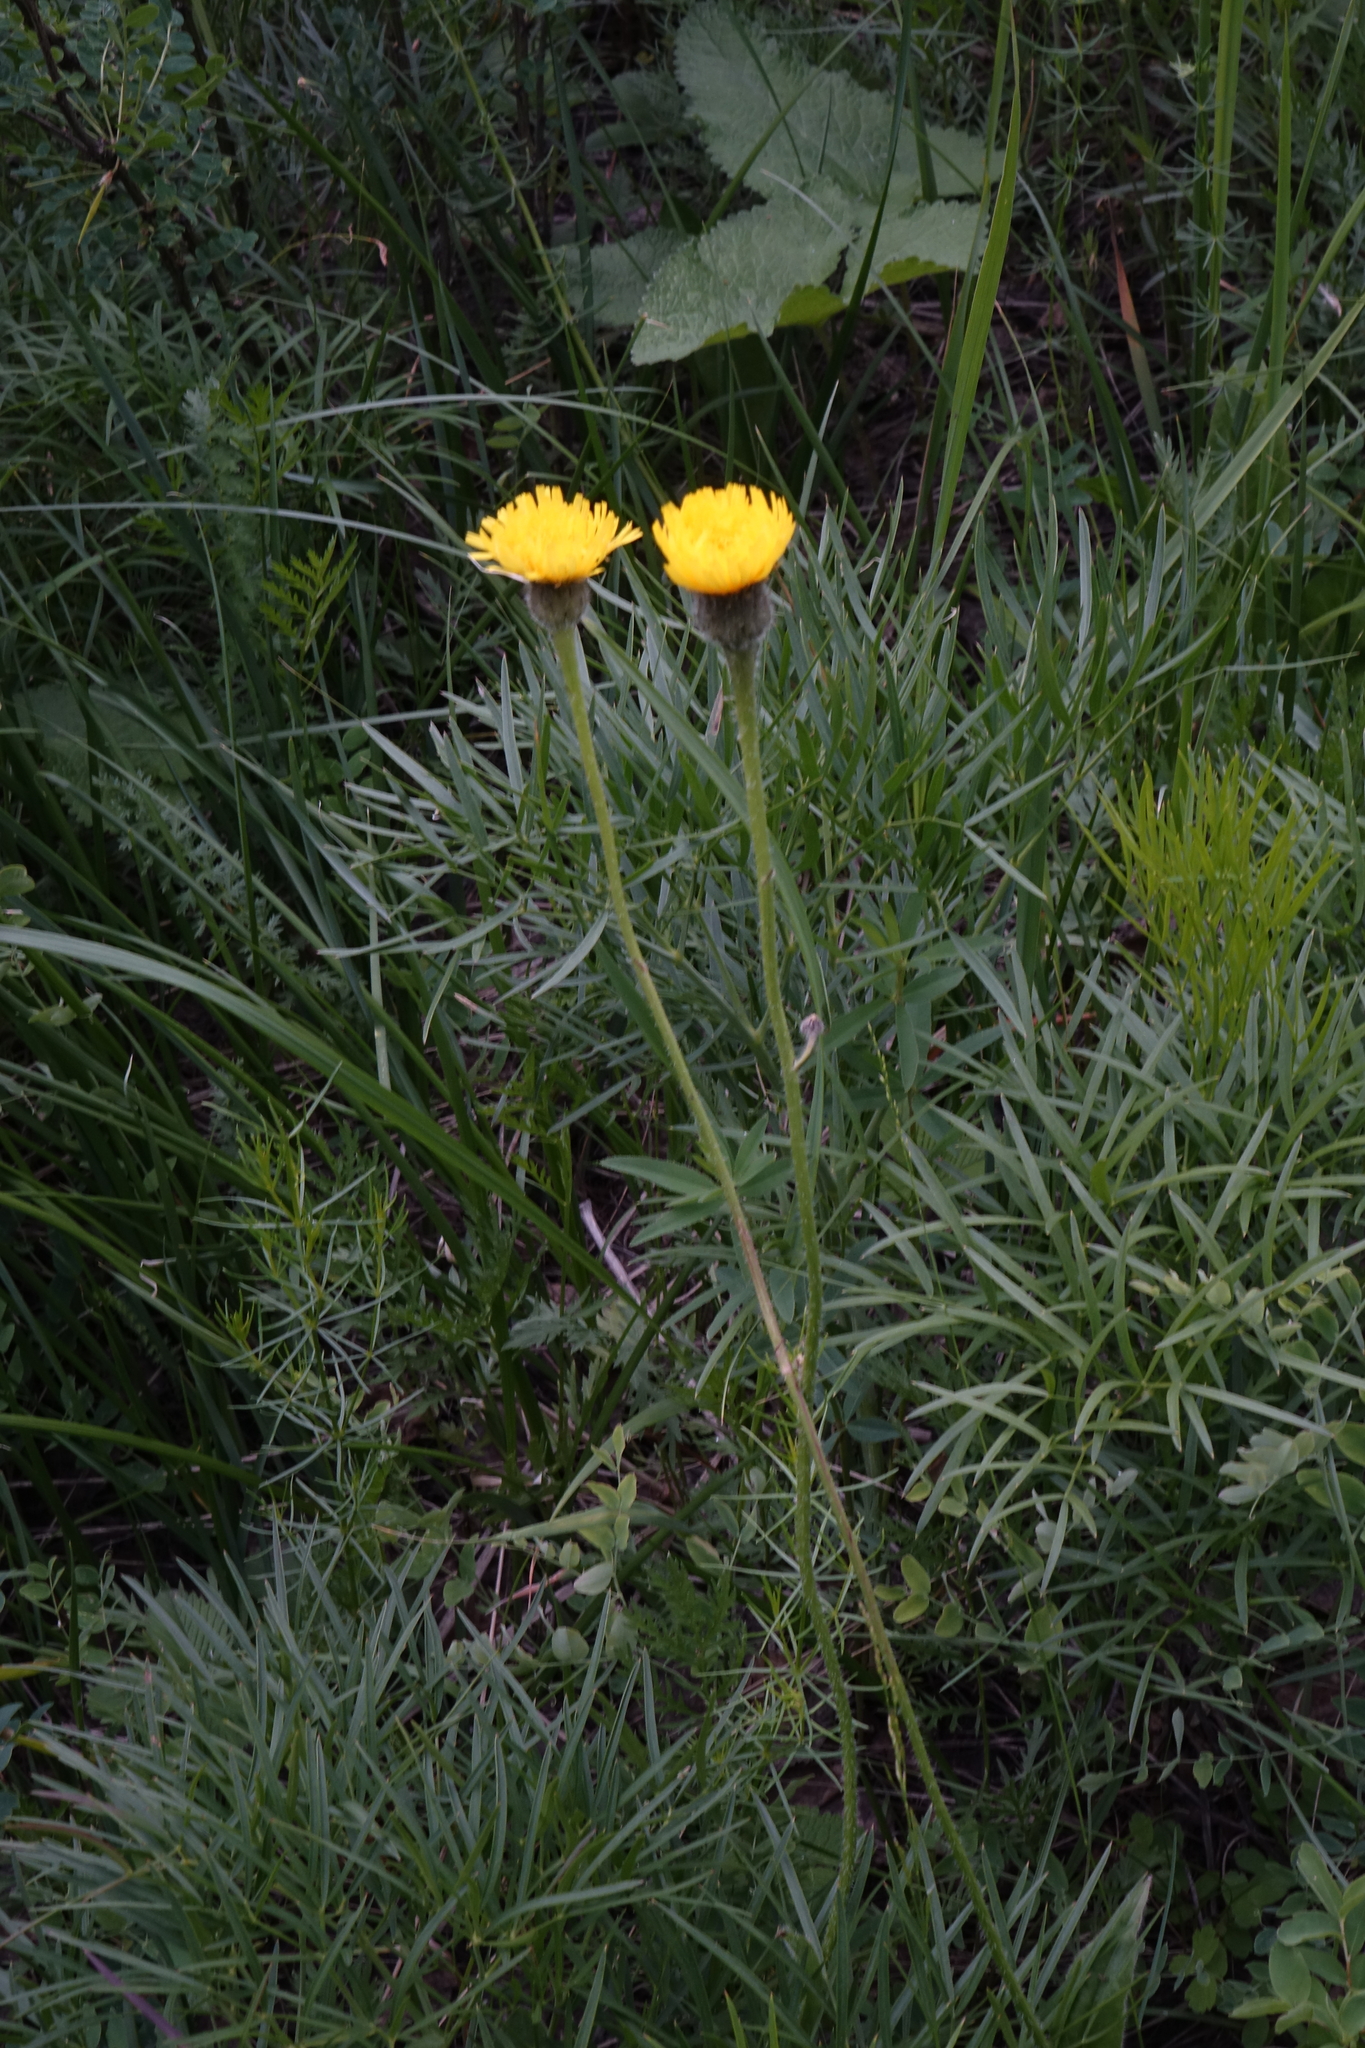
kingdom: Plantae
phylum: Tracheophyta
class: Magnoliopsida
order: Asterales
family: Asteraceae
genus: Trommsdorffia
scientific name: Trommsdorffia maculata
